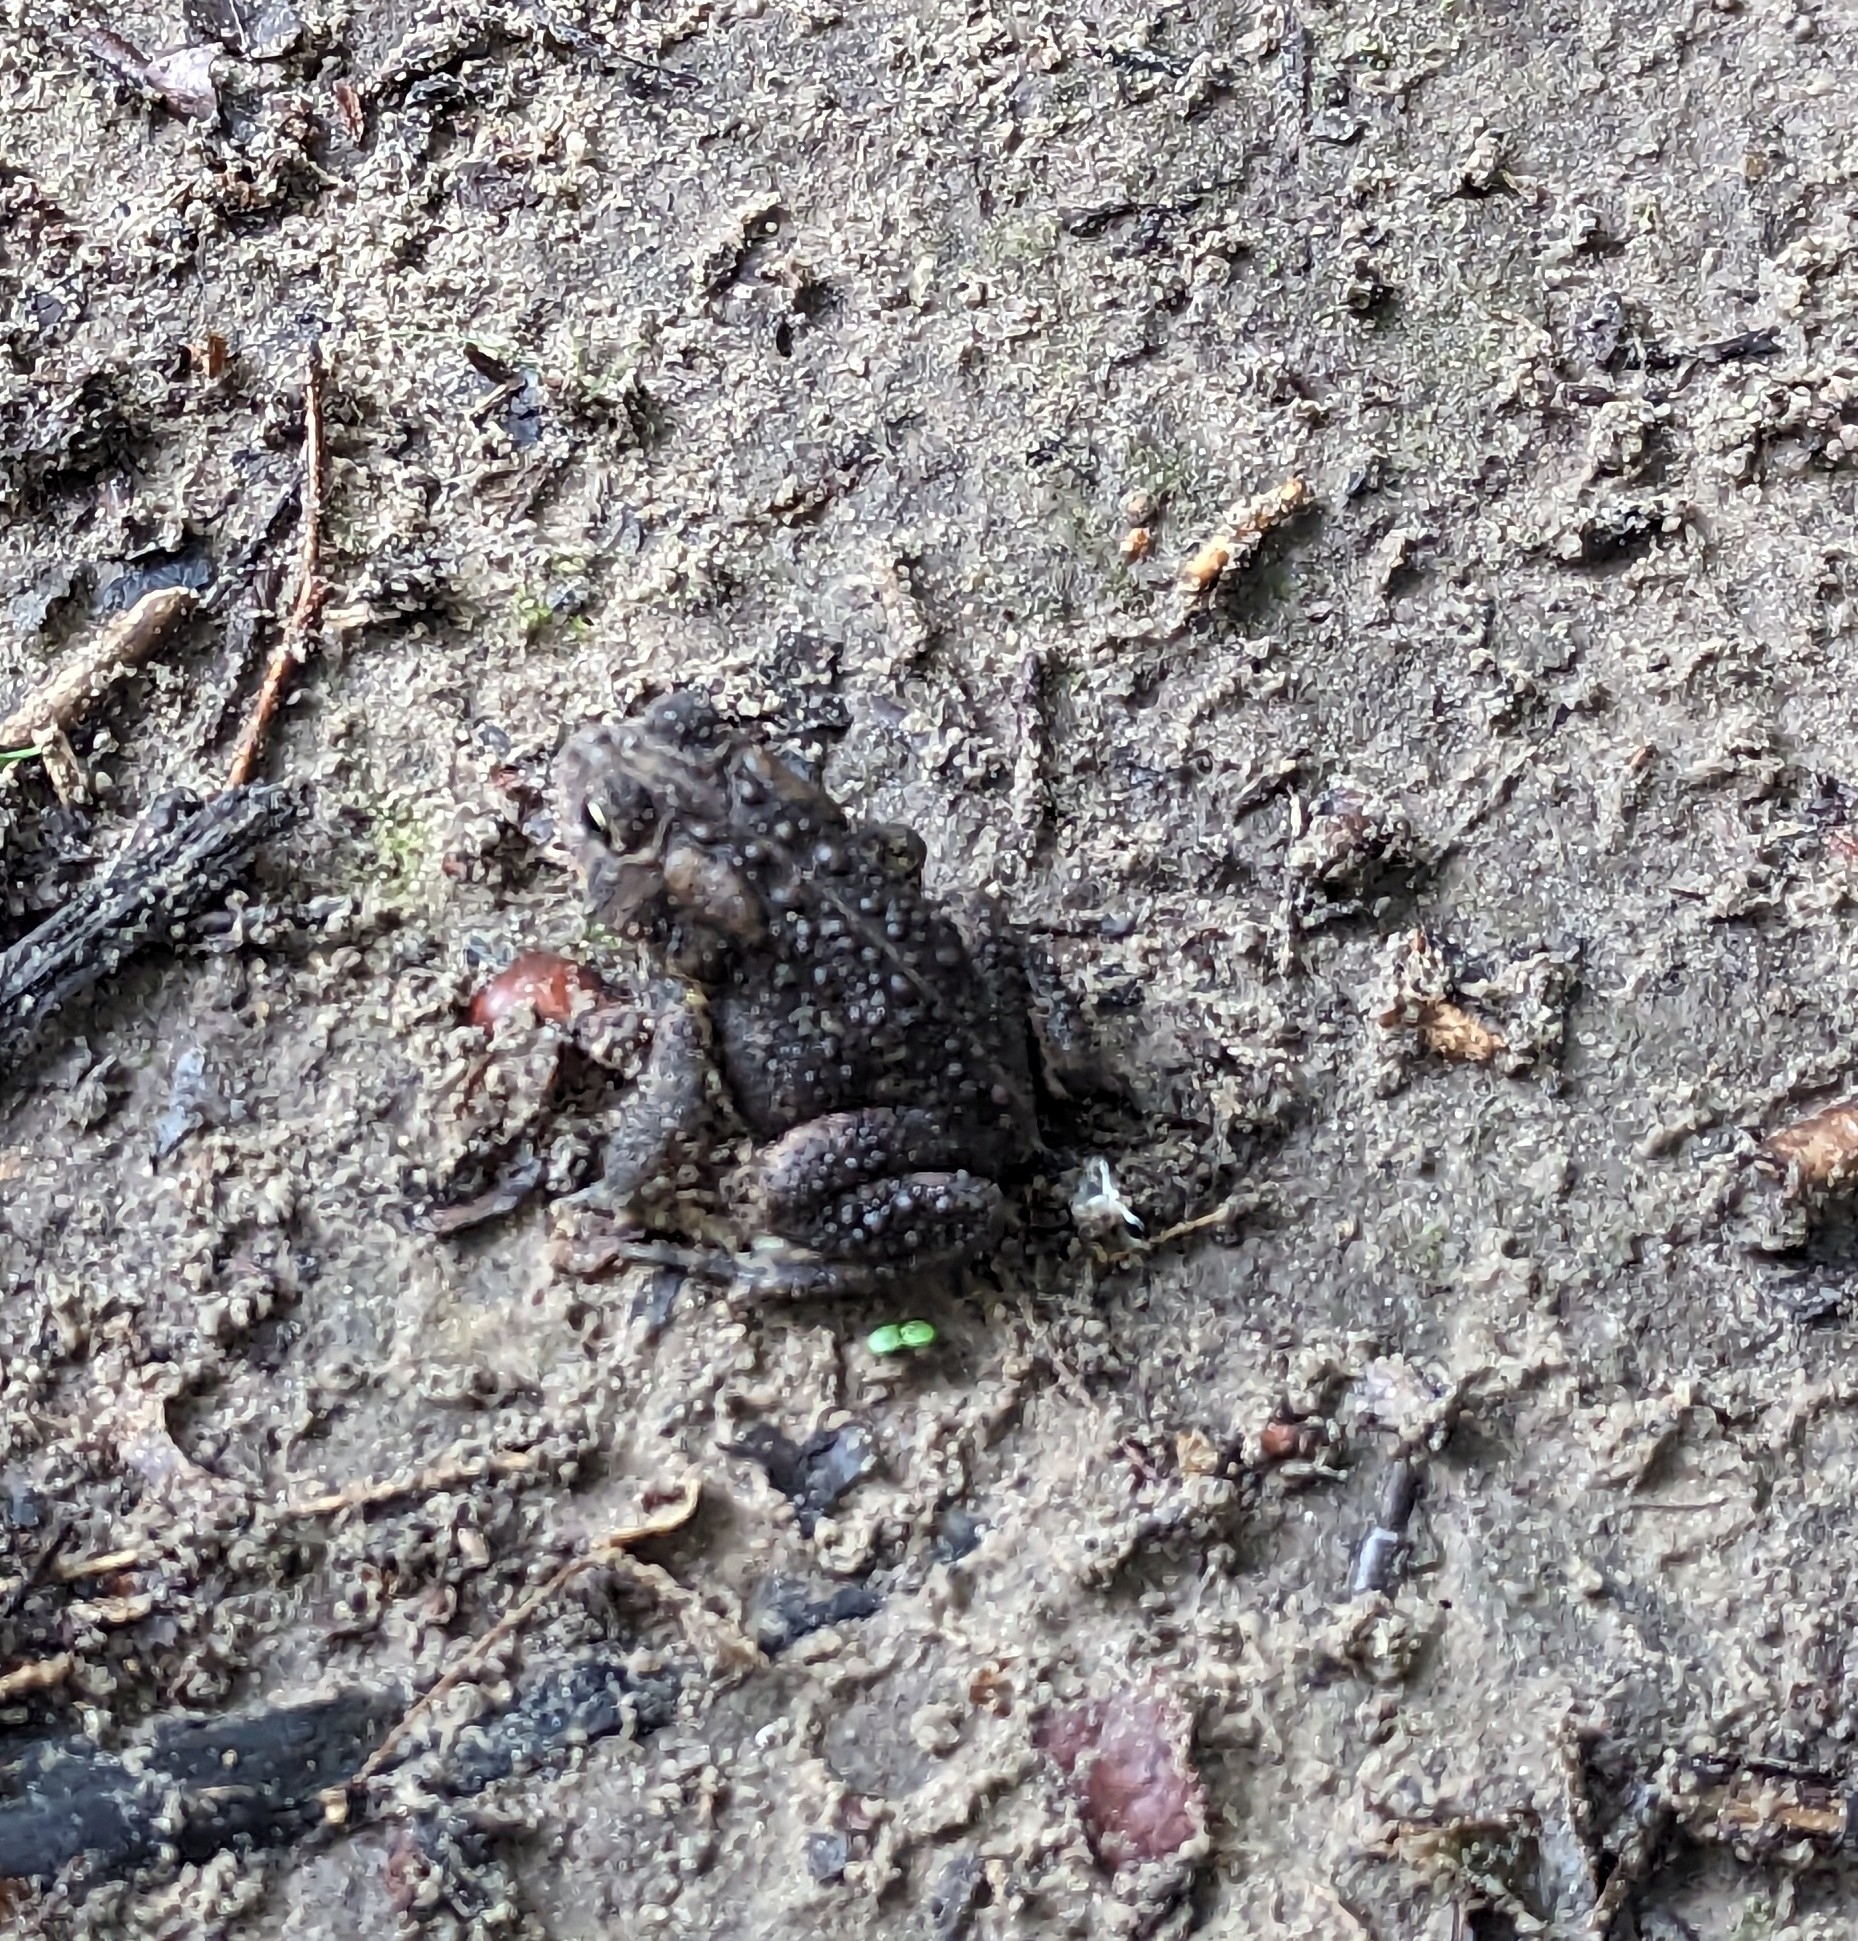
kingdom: Animalia
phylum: Chordata
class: Amphibia
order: Anura
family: Bufonidae
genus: Anaxyrus
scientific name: Anaxyrus americanus
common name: American toad
